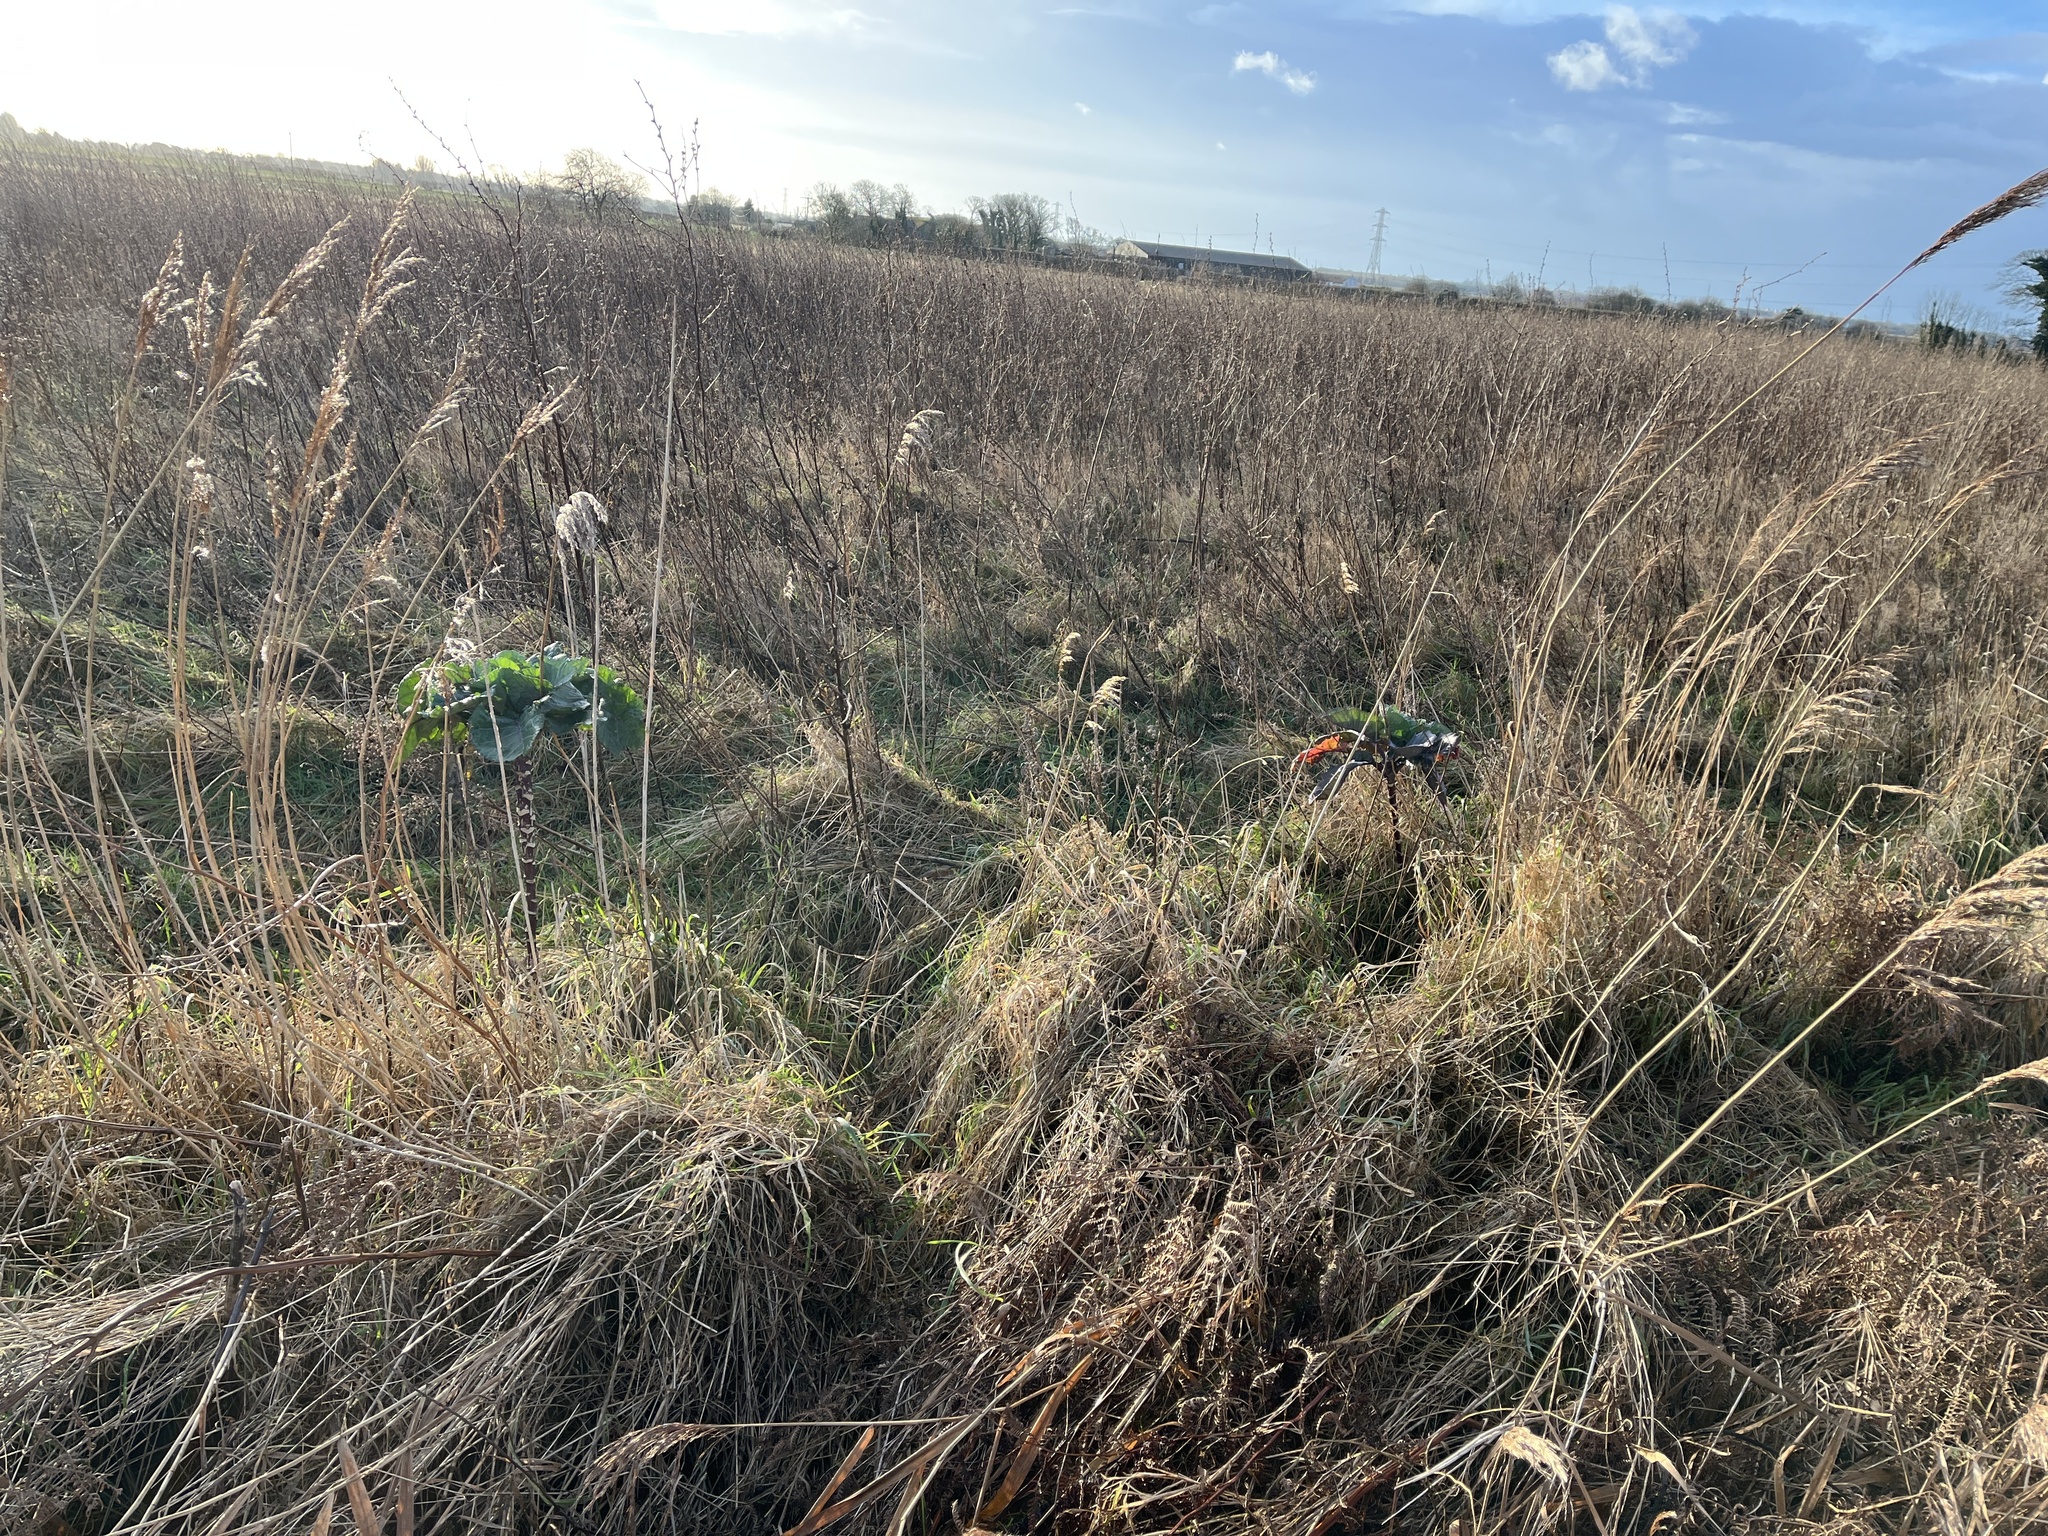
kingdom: Plantae
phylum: Tracheophyta
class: Magnoliopsida
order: Brassicales
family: Brassicaceae
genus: Brassica
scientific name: Brassica oleracea
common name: Cabbage
